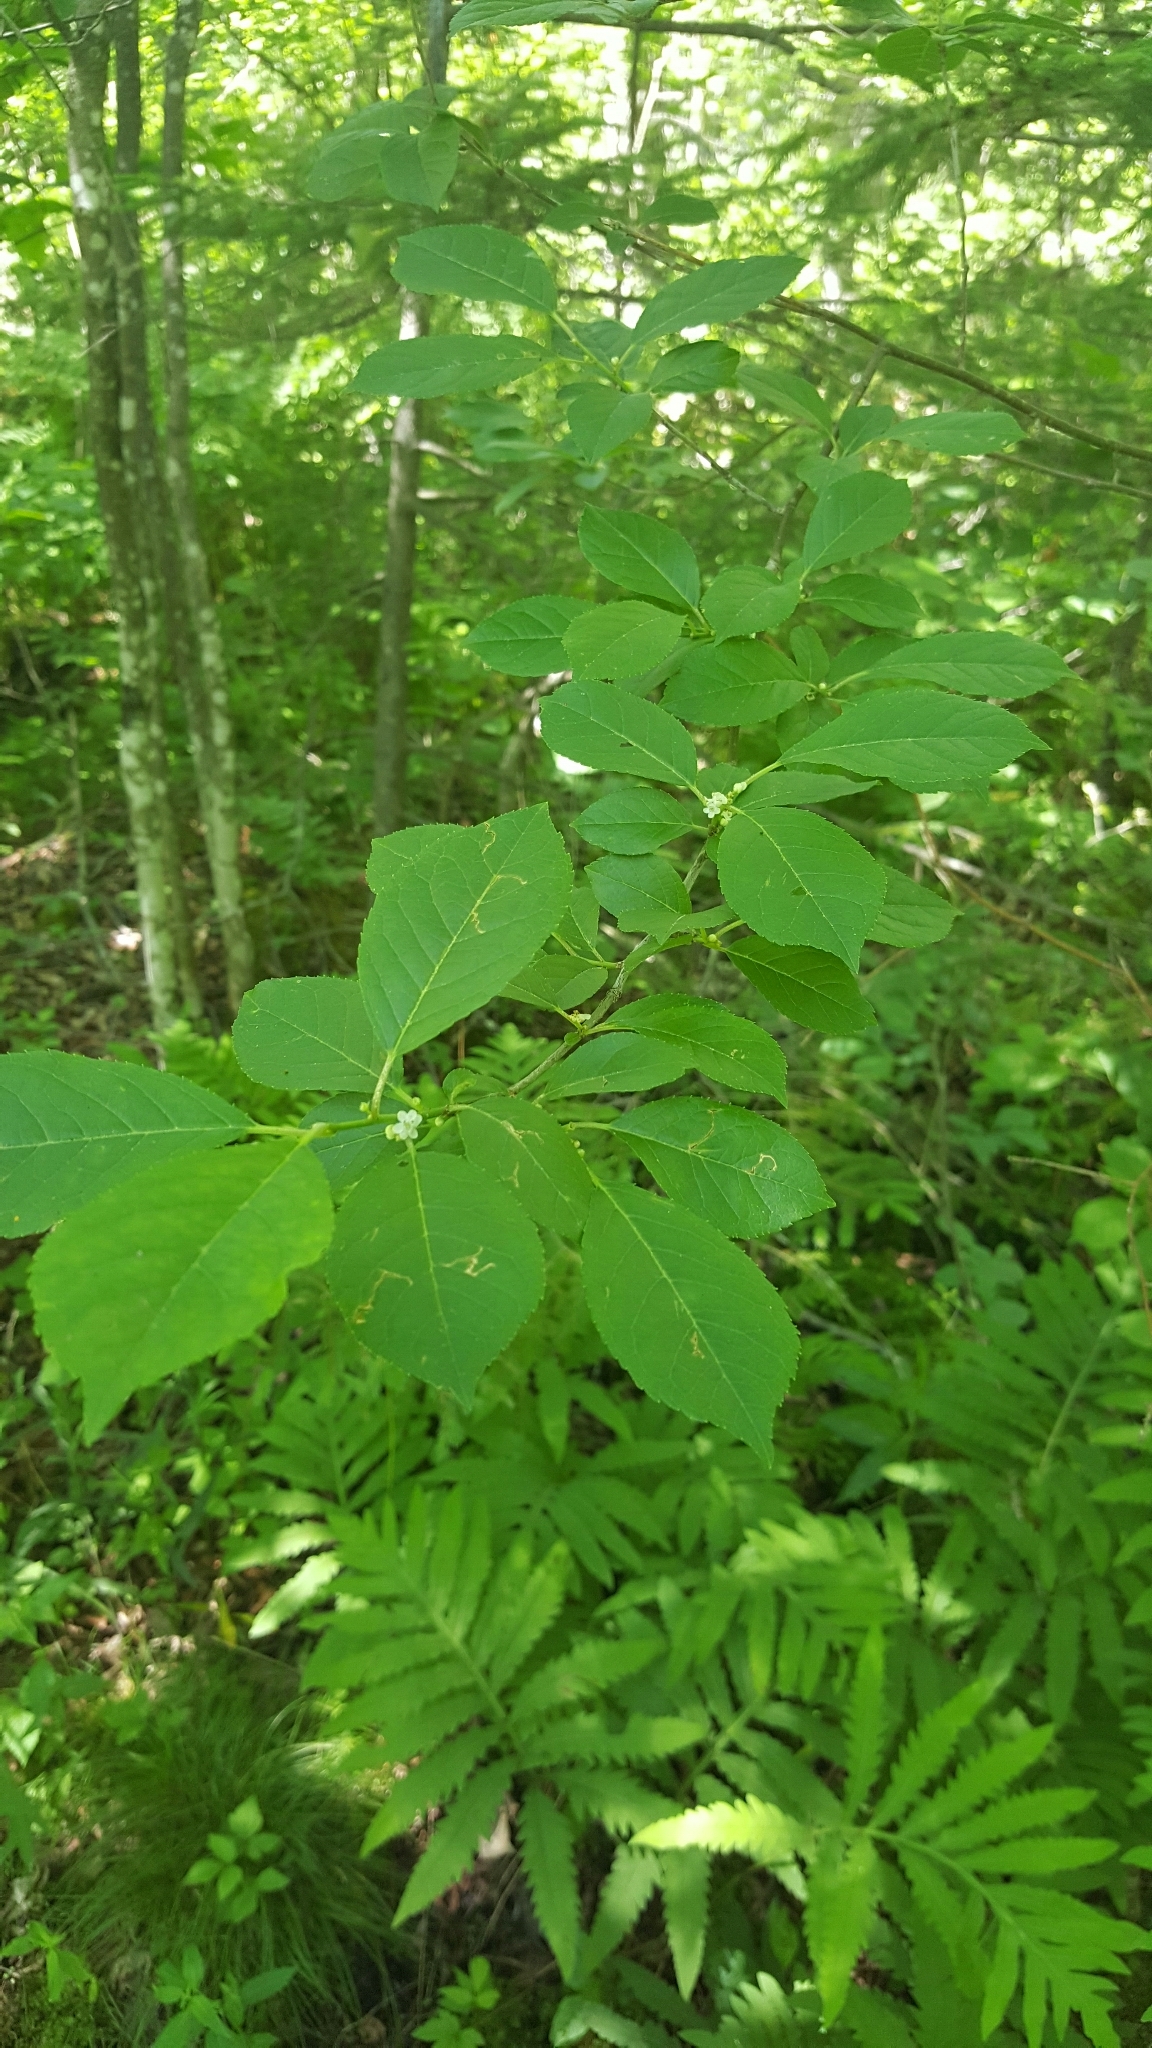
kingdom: Plantae
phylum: Tracheophyta
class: Magnoliopsida
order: Aquifoliales
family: Aquifoliaceae
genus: Ilex
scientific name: Ilex verticillata
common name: Virginia winterberry
